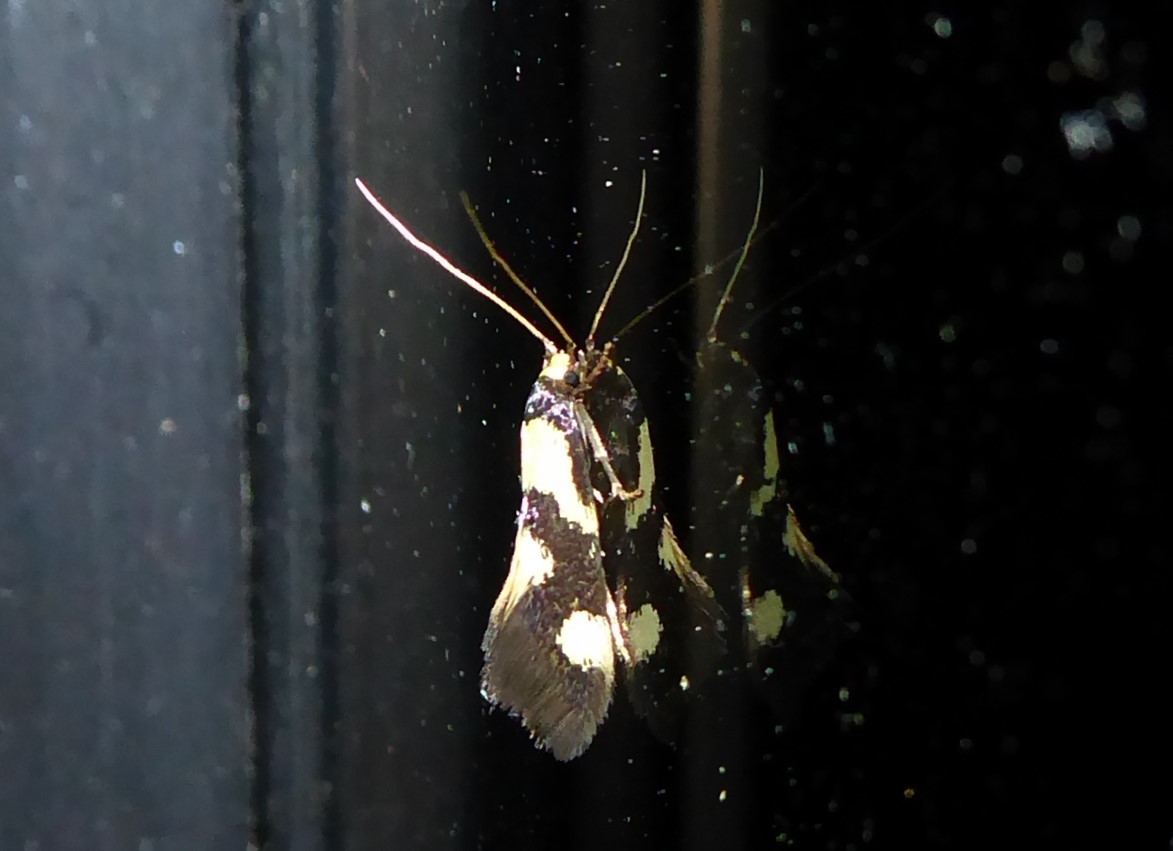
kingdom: Animalia
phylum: Arthropoda
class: Insecta
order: Lepidoptera
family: Tineidae
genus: Opogona
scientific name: Opogona comptella
